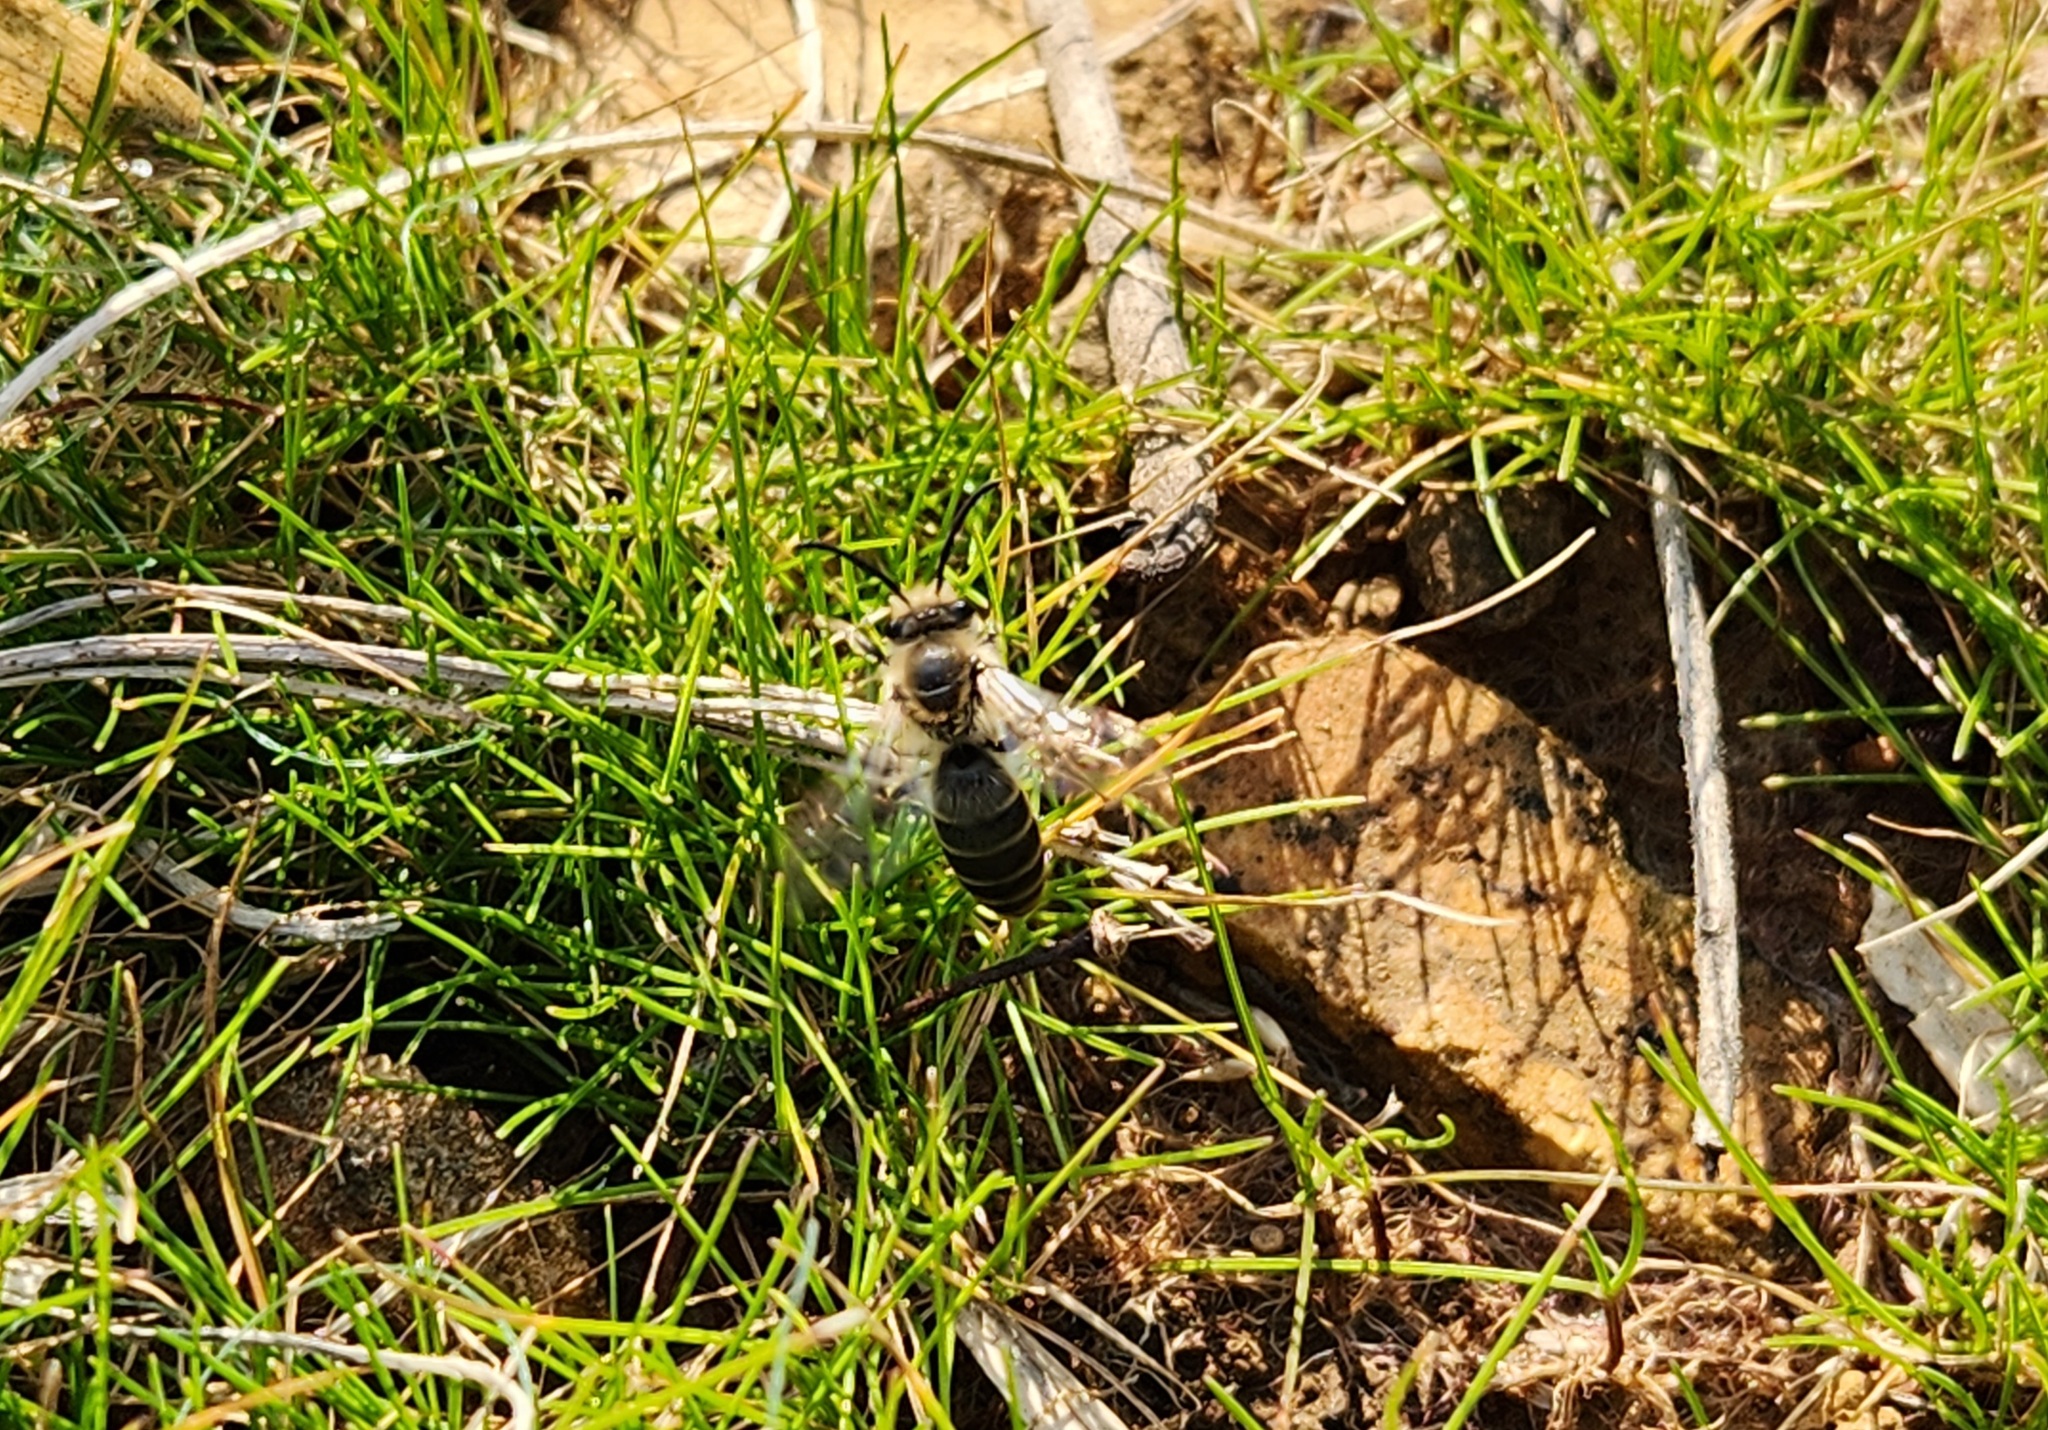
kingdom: Animalia
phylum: Arthropoda
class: Insecta
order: Hymenoptera
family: Colletidae
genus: Colletes
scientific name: Colletes inaequalis
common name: Unequal cellophane bee
